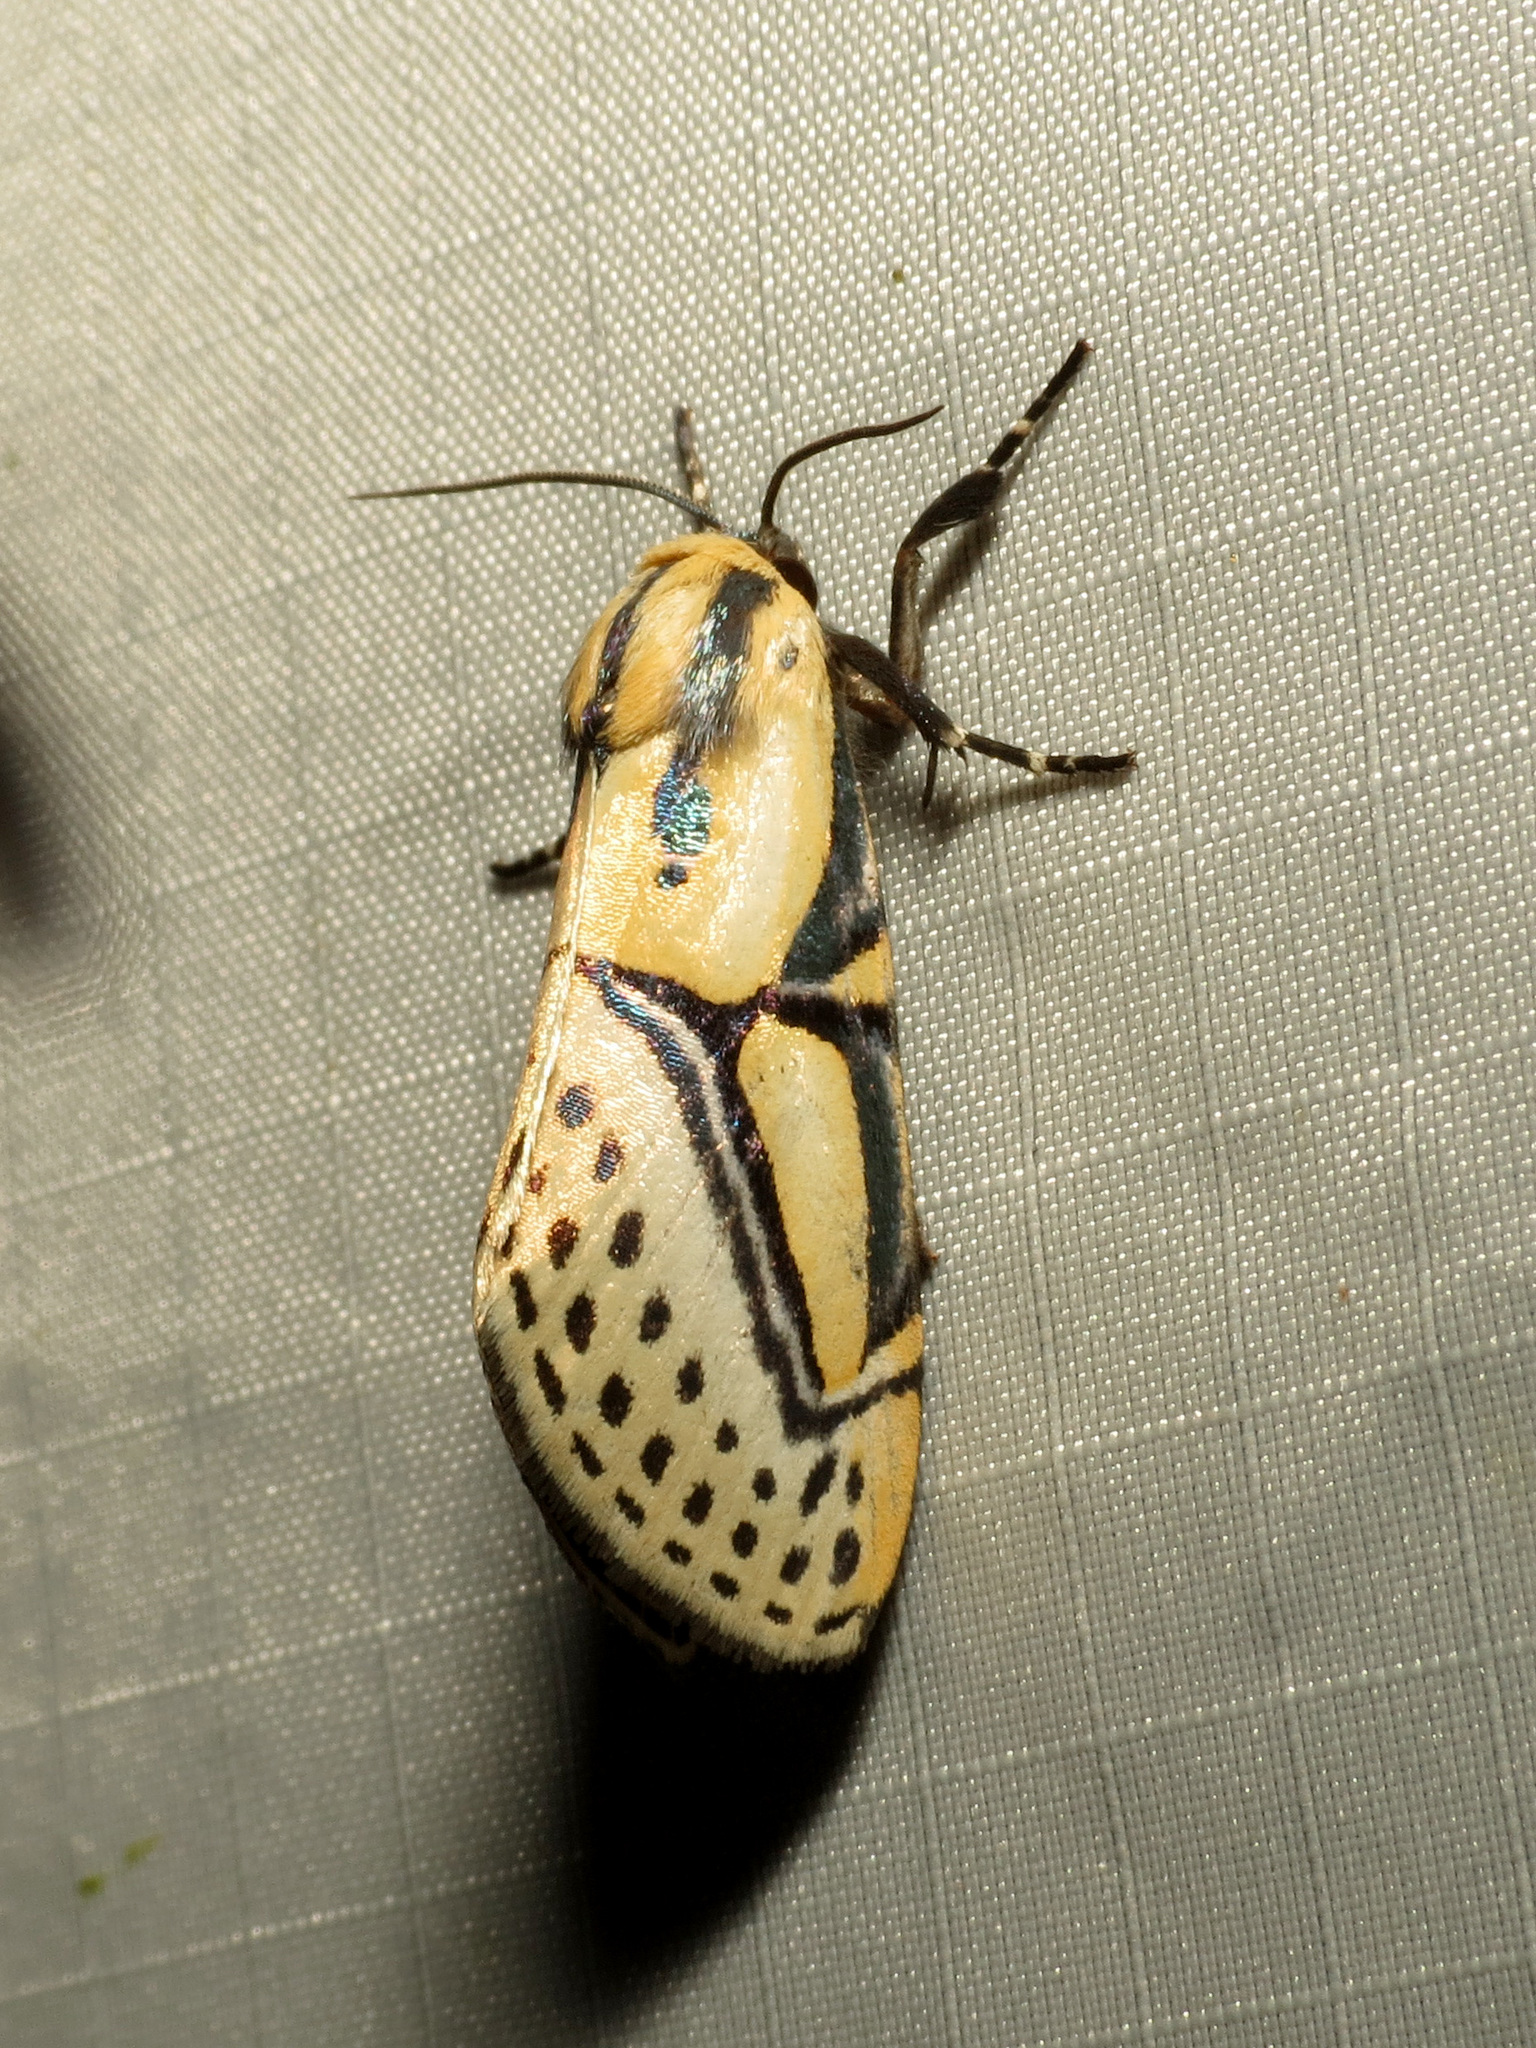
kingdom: Animalia
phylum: Arthropoda
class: Insecta
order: Lepidoptera
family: Erebidae
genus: Diphthera
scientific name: Diphthera festiva
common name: Hieroglyphic moth
